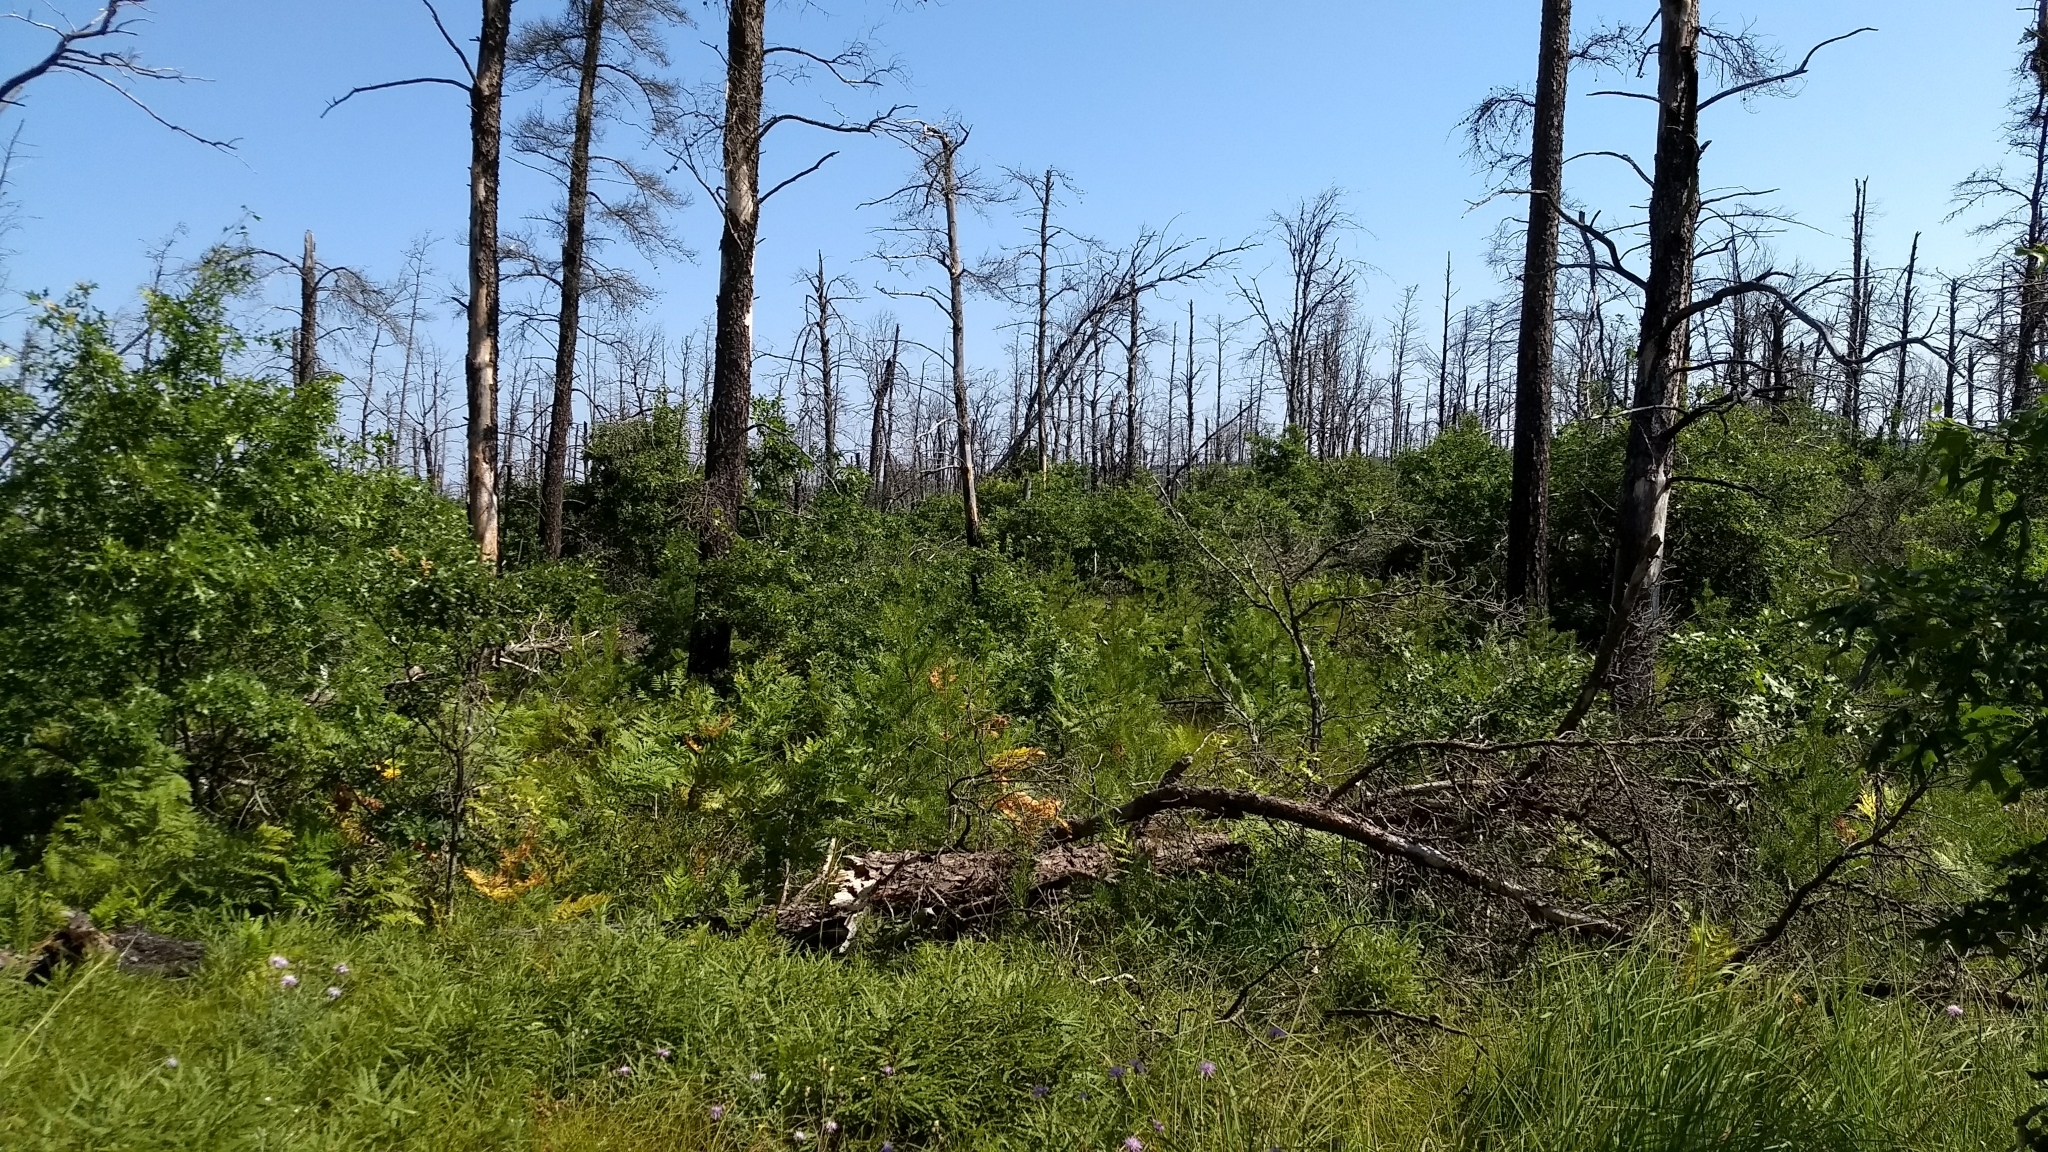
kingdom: Plantae
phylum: Tracheophyta
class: Pinopsida
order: Pinales
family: Pinaceae
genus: Pinus
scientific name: Pinus banksiana
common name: Jack pine
